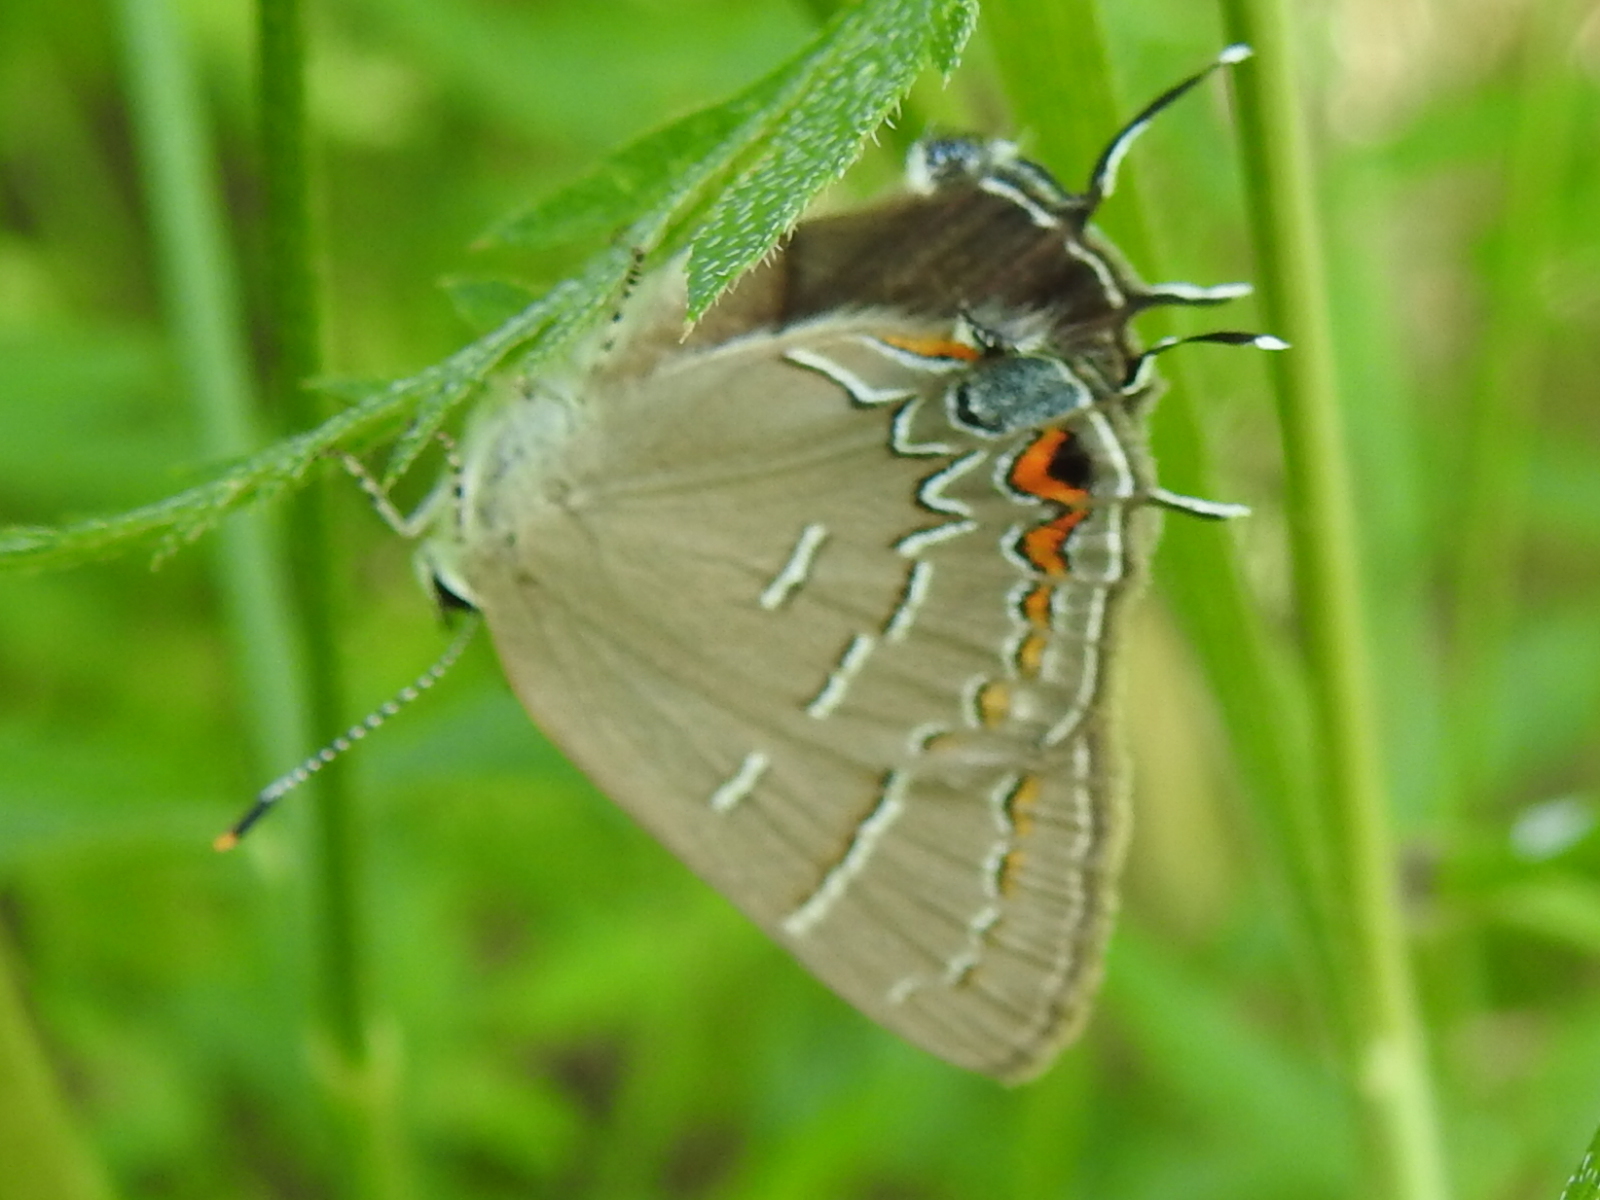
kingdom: Animalia
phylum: Arthropoda
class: Insecta
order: Lepidoptera
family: Lycaenidae
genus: Phaeostrymon
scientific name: Phaeostrymon alcestis
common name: Soapberry hairstreak
